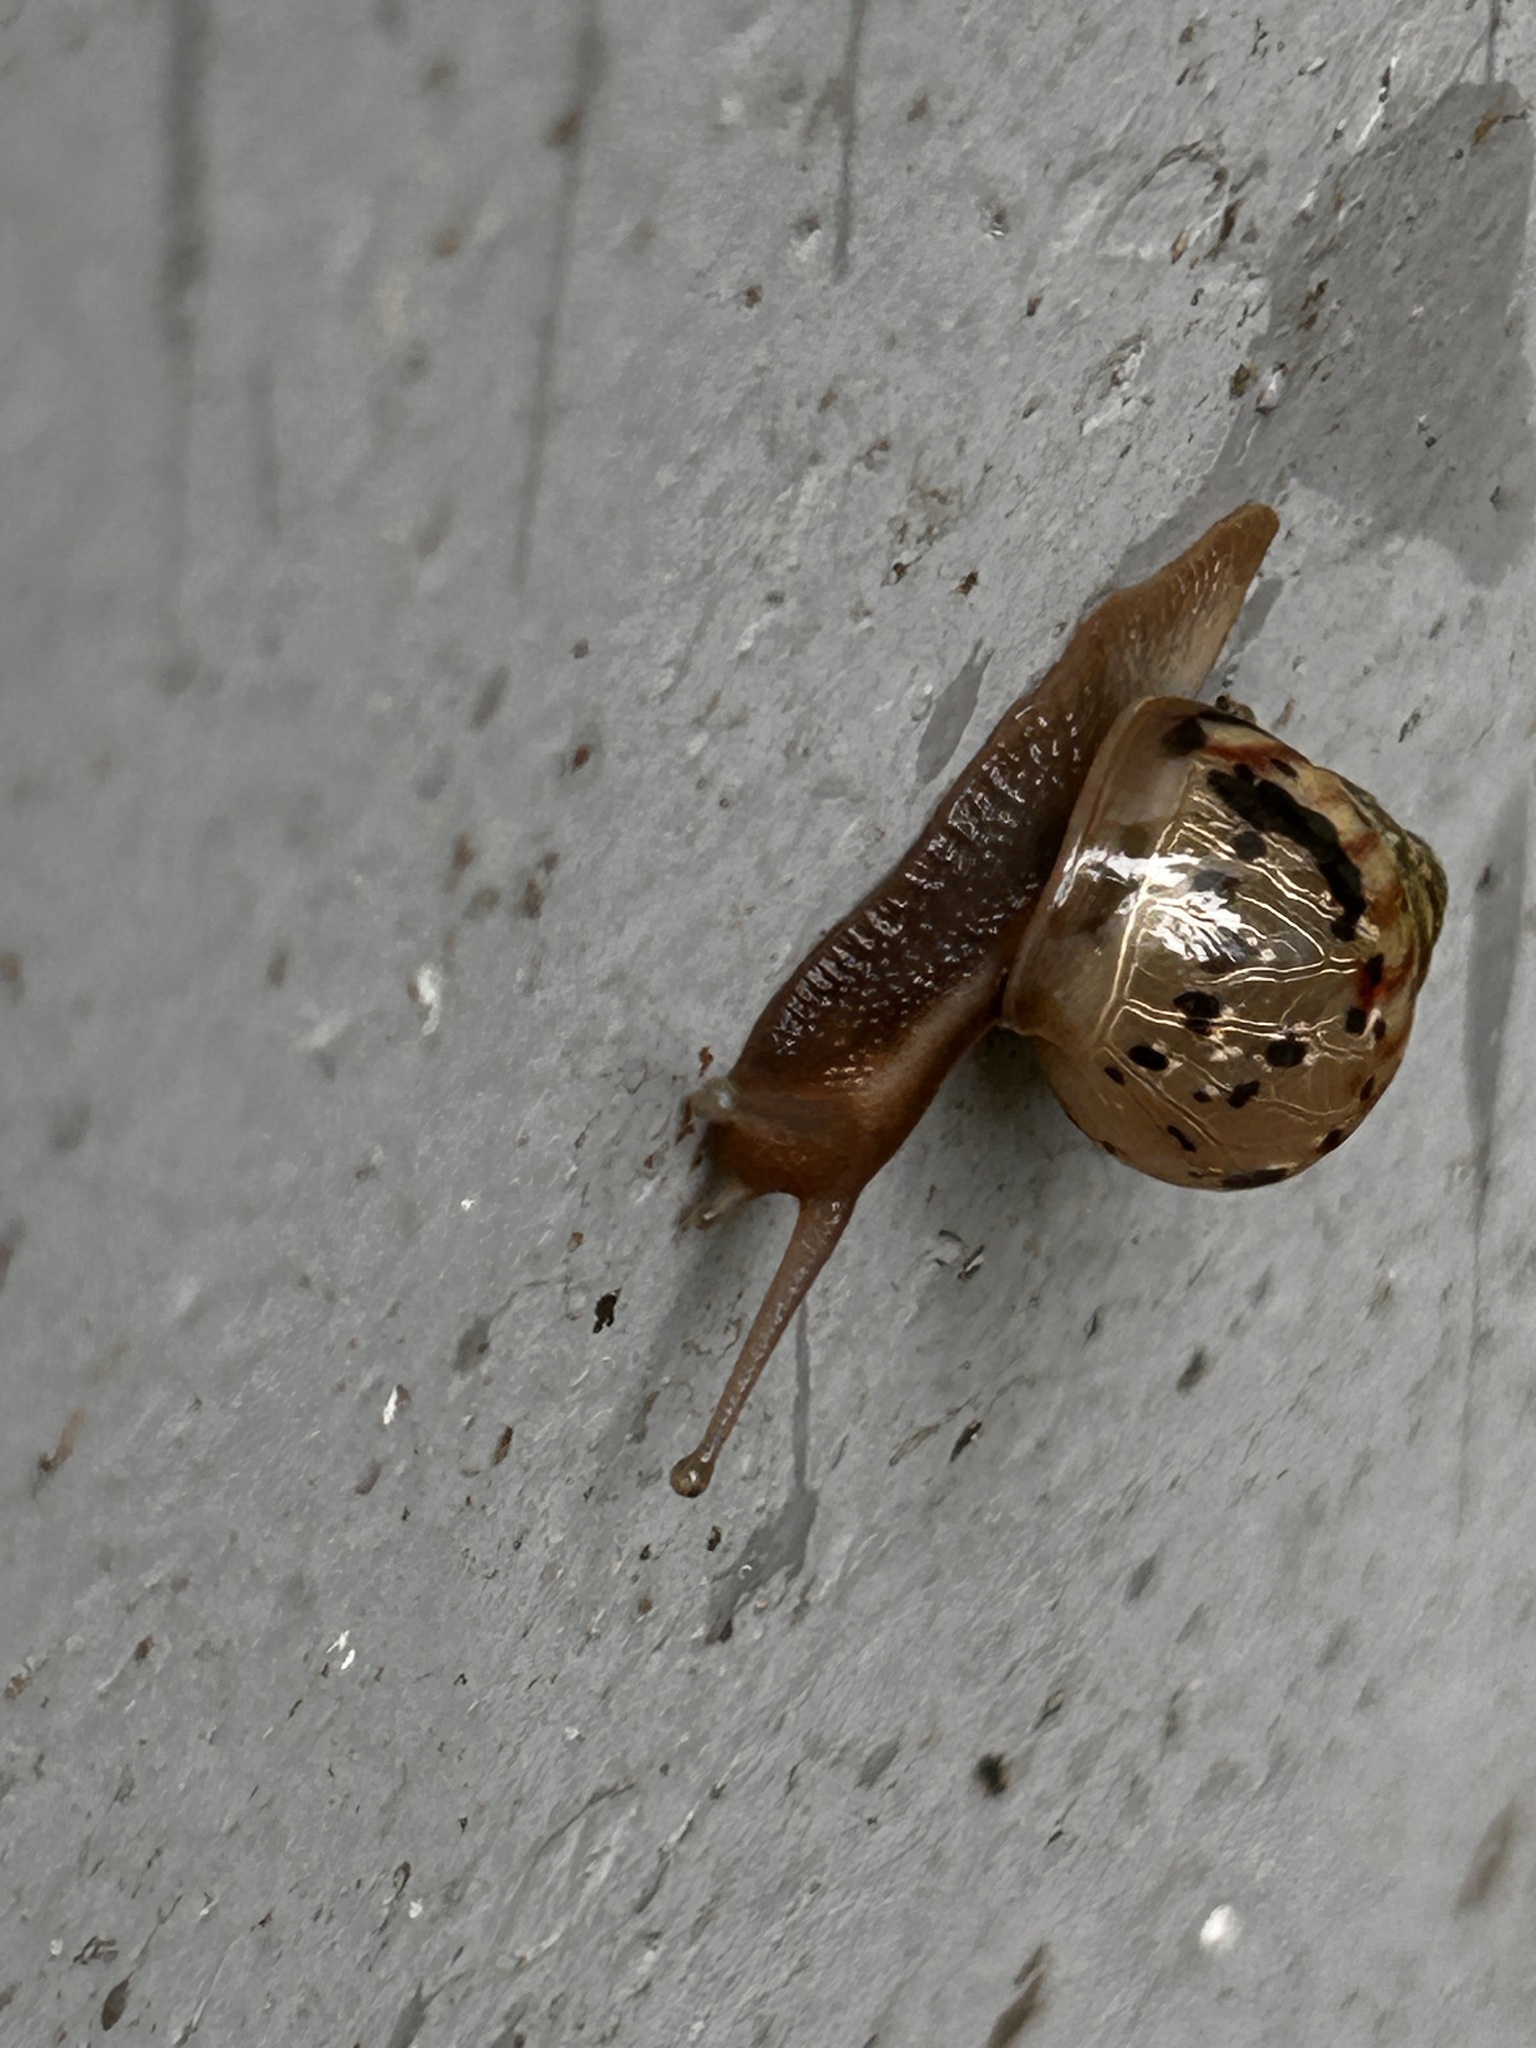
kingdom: Animalia
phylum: Mollusca
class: Gastropoda
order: Stylommatophora
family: Ariophantidae
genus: Sarika
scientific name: Sarika siamensis
